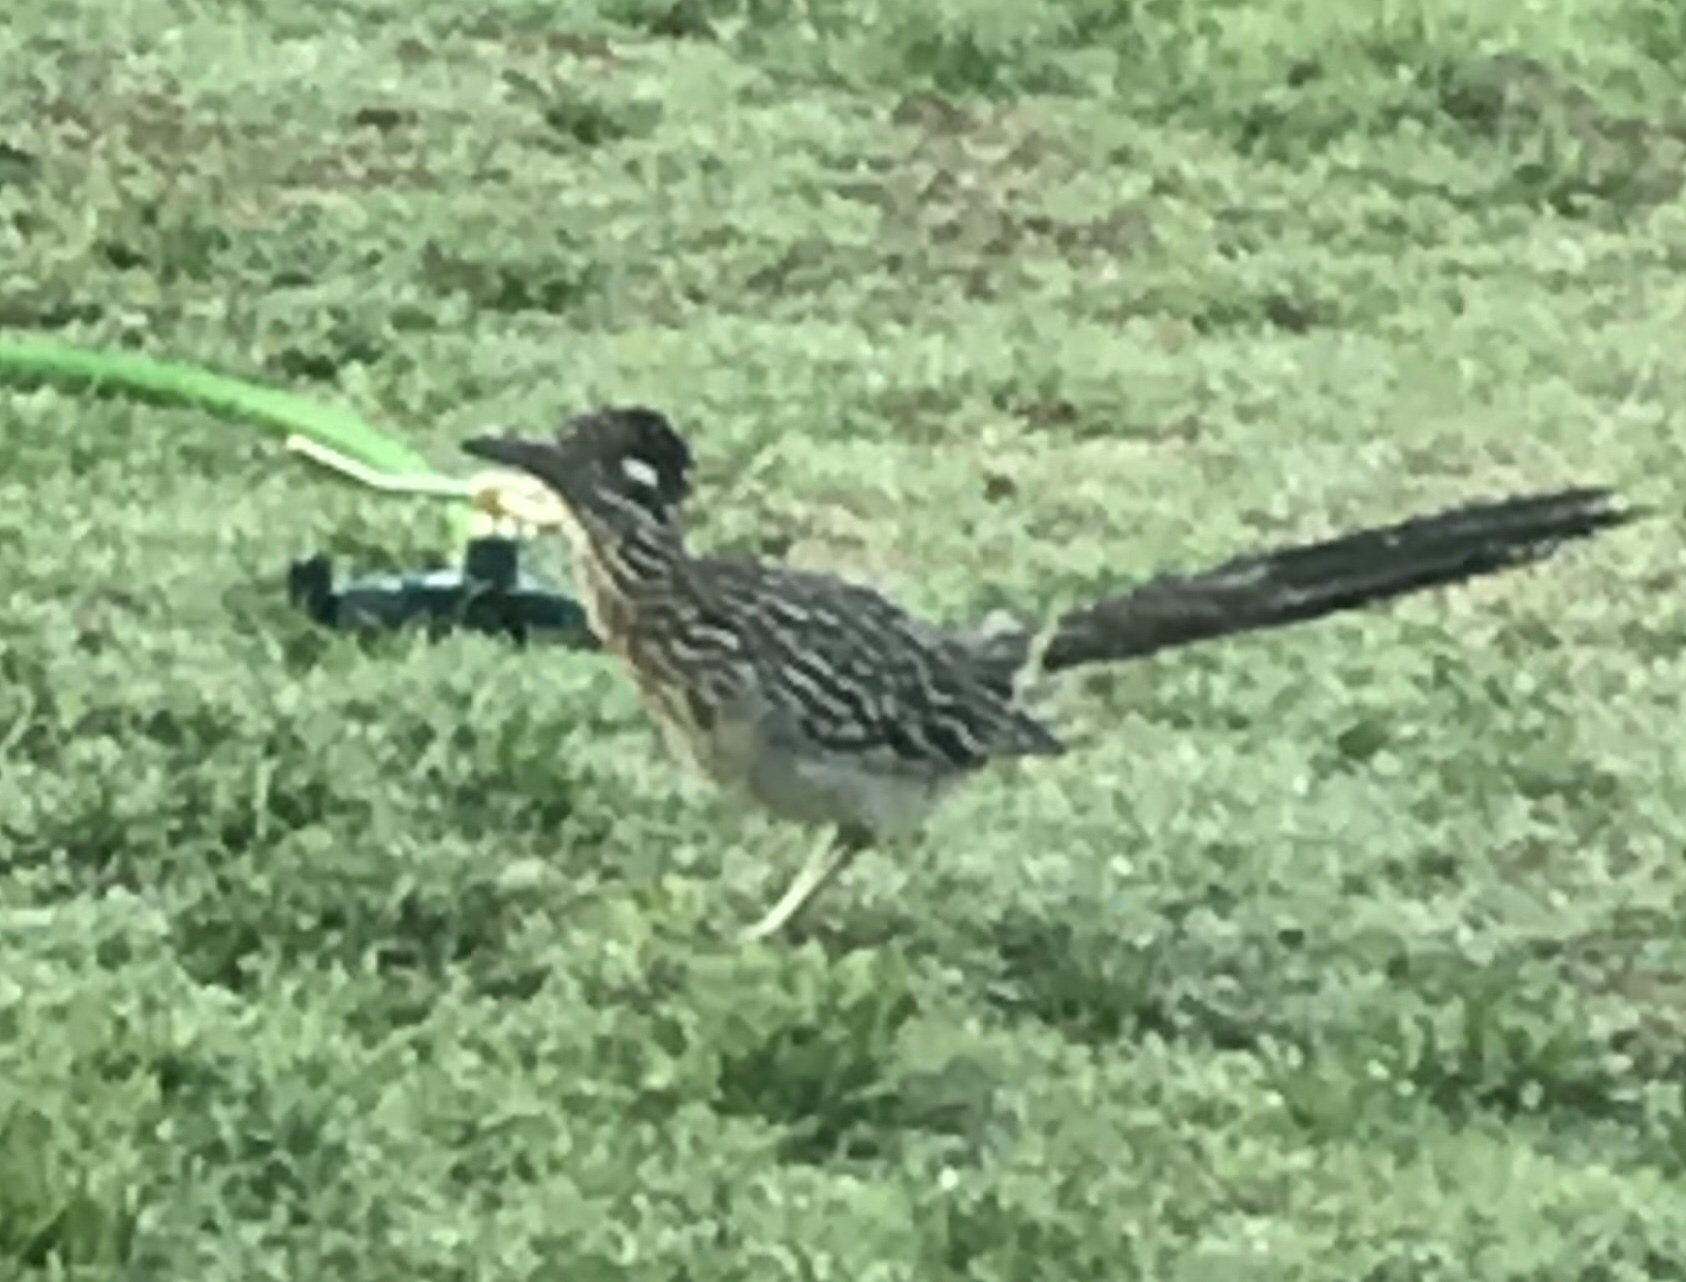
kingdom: Animalia
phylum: Chordata
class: Aves
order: Cuculiformes
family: Cuculidae
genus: Geococcyx
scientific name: Geococcyx californianus
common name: Greater roadrunner
